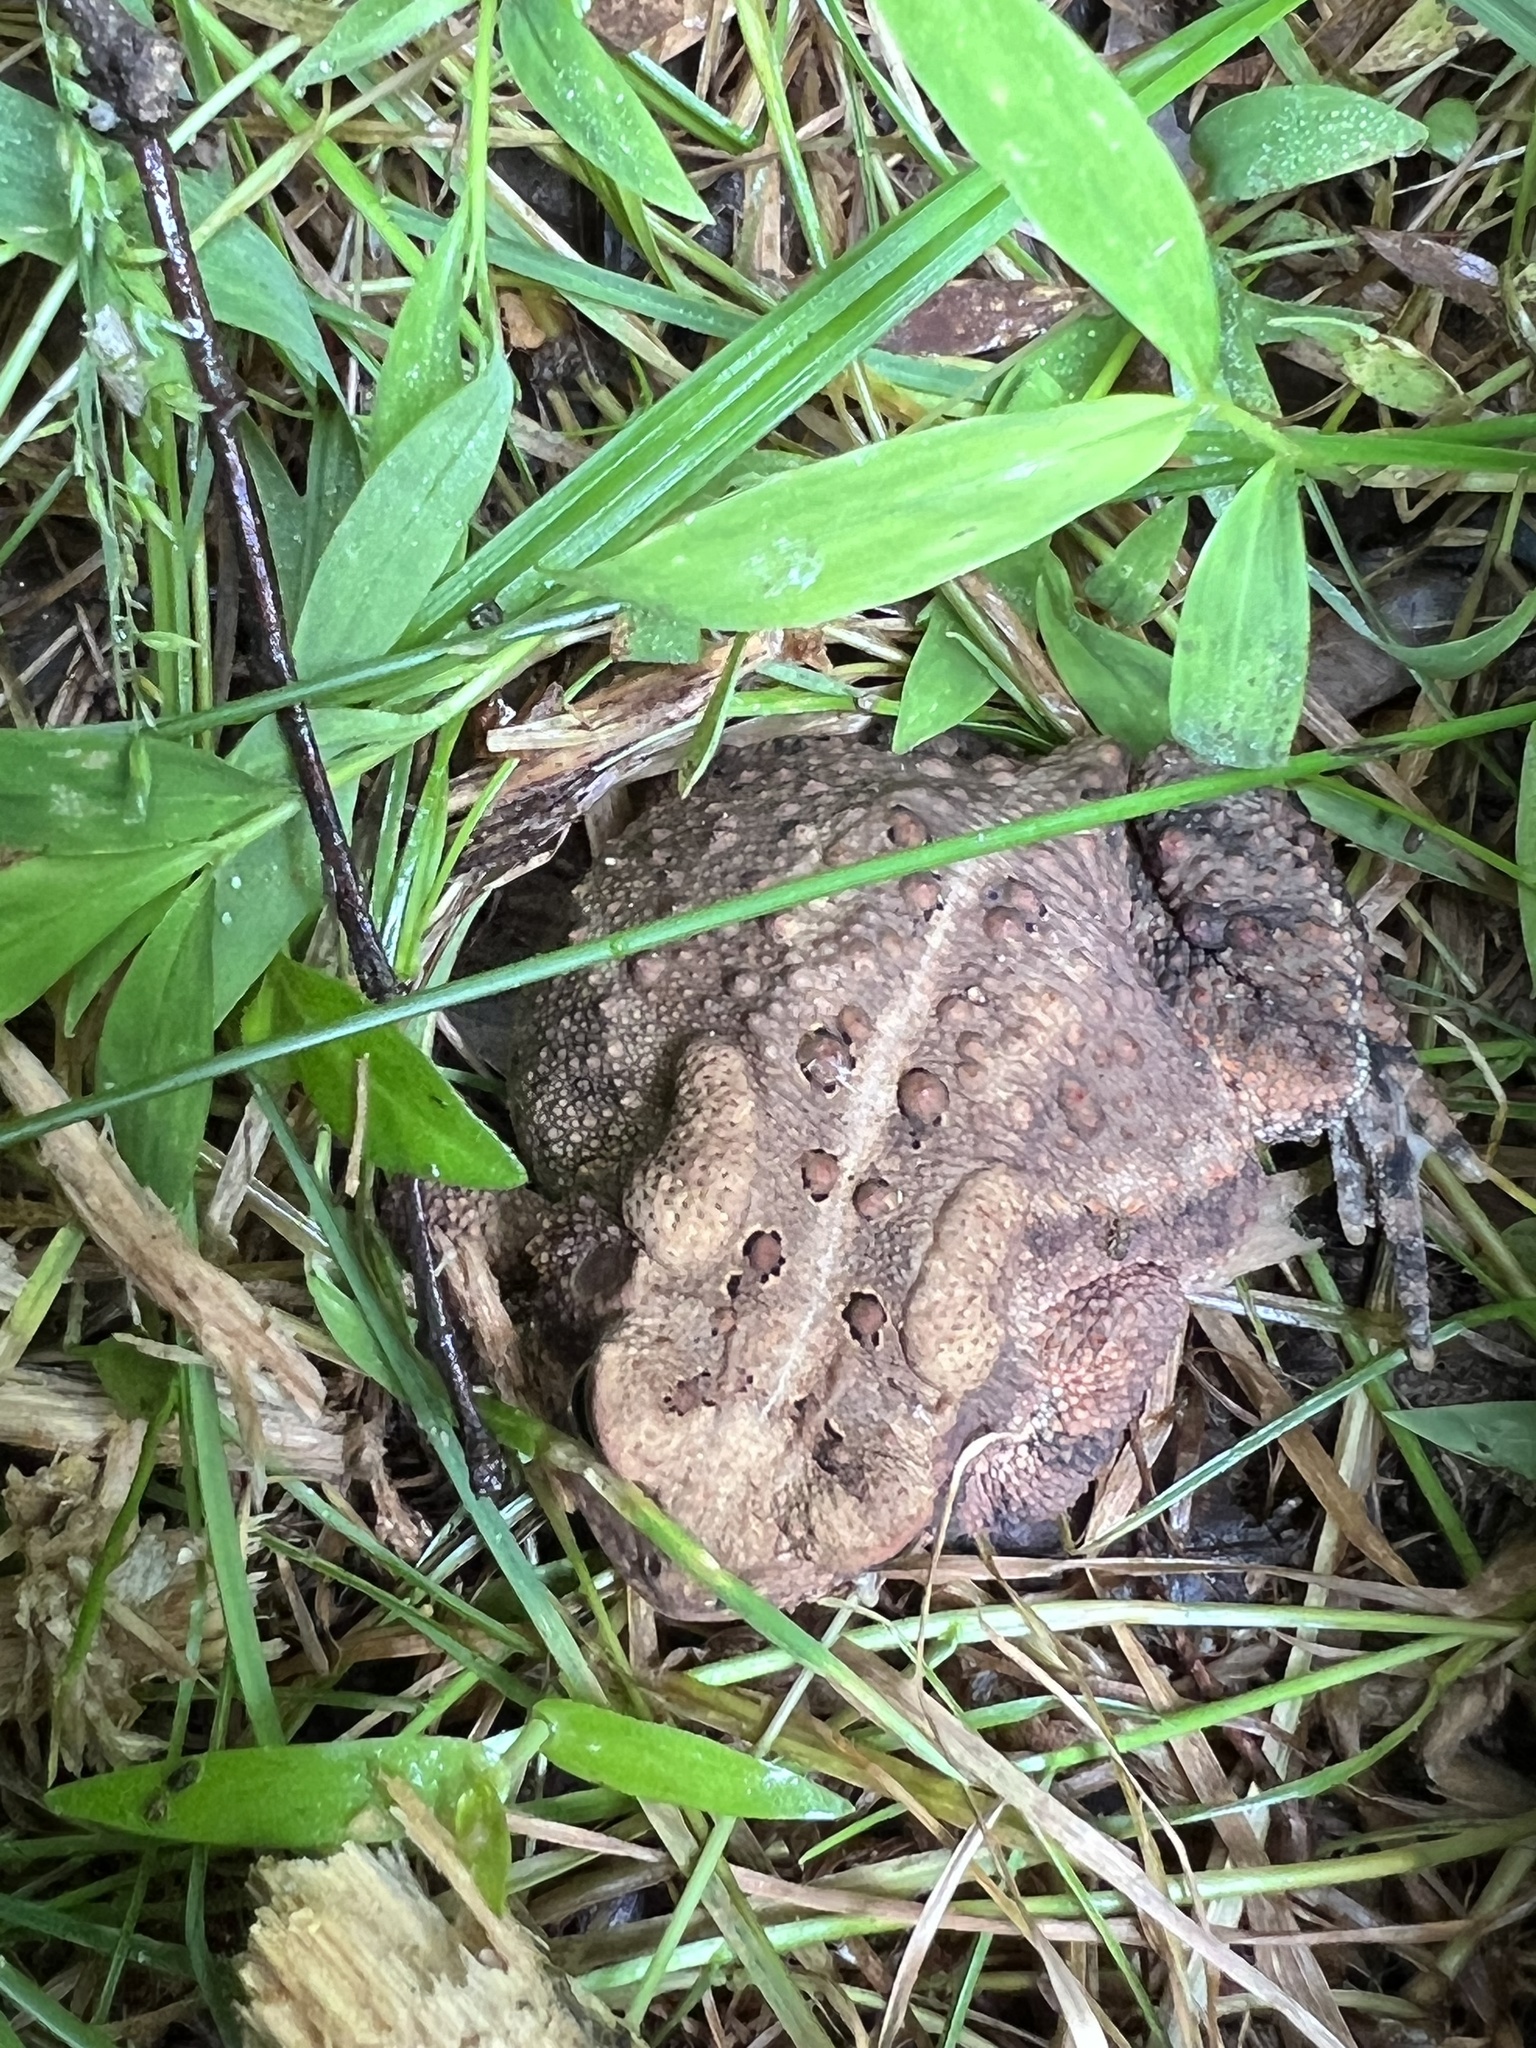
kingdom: Animalia
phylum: Chordata
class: Amphibia
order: Anura
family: Bufonidae
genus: Anaxyrus
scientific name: Anaxyrus americanus
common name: American toad
